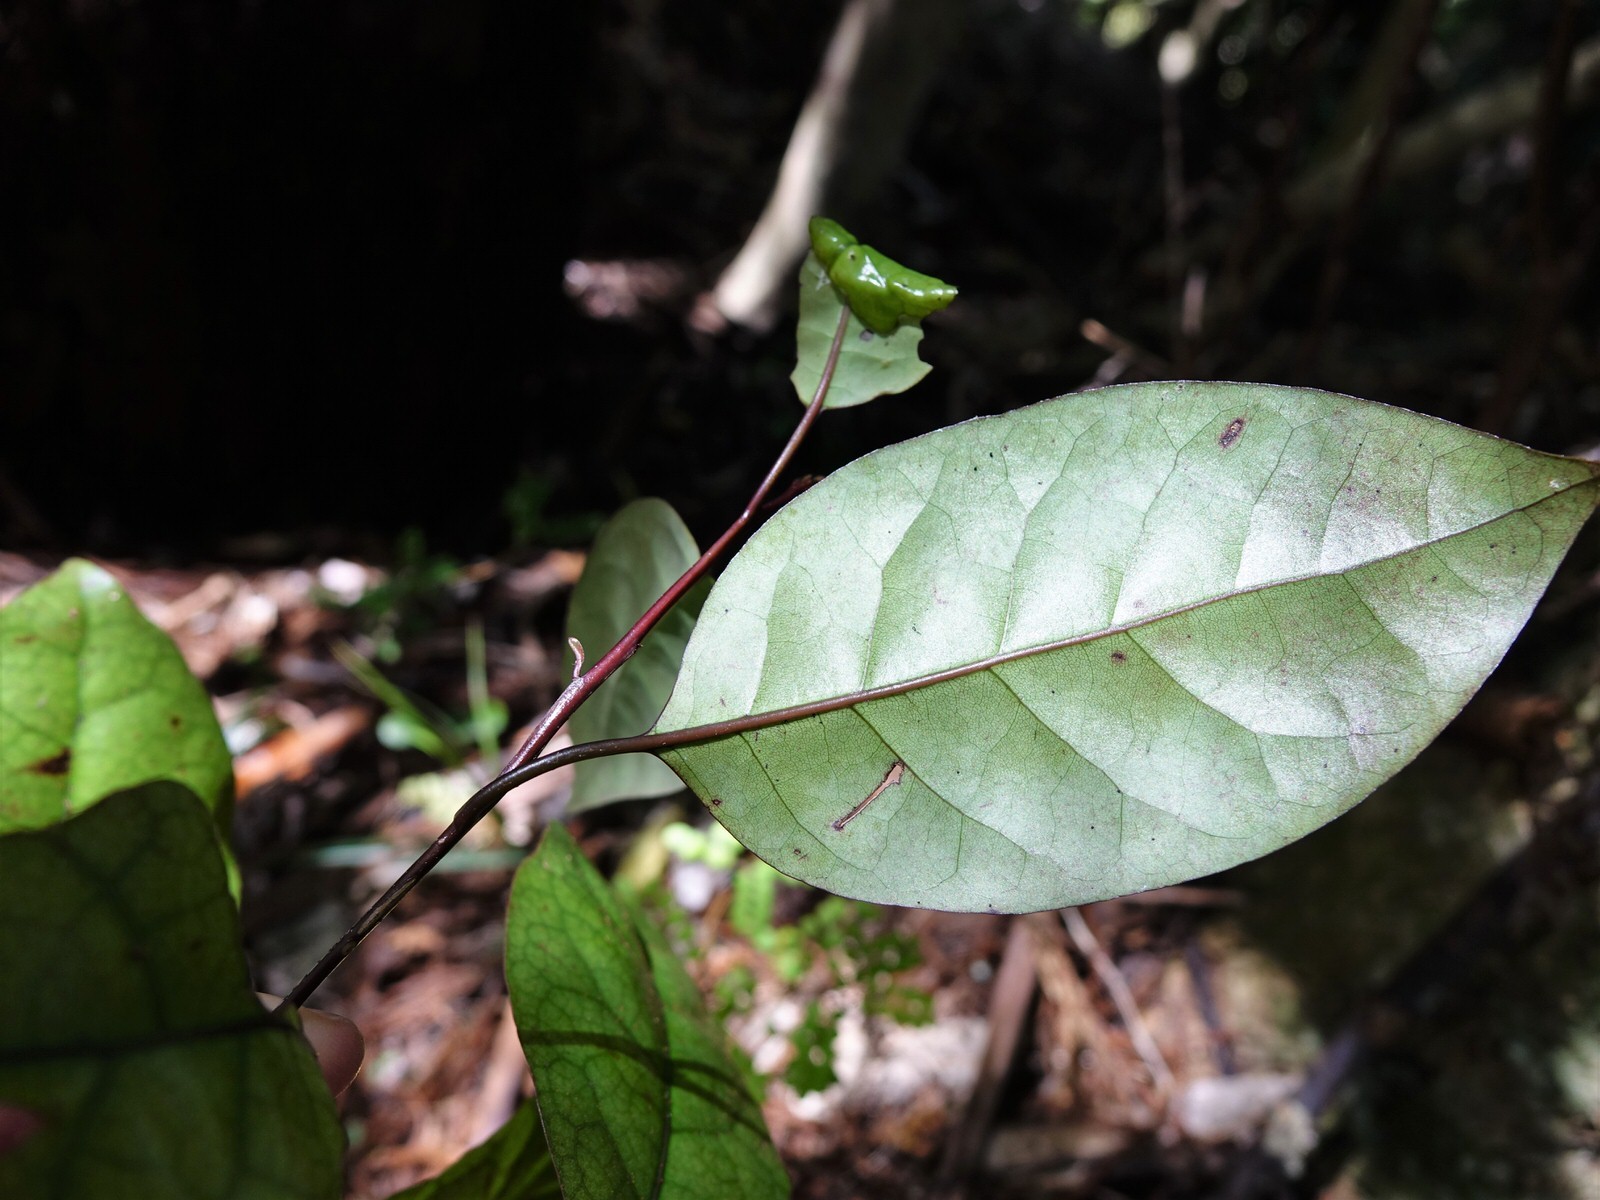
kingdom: Plantae
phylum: Tracheophyta
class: Magnoliopsida
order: Laurales
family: Lauraceae
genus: Litsea
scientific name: Litsea calicaris
